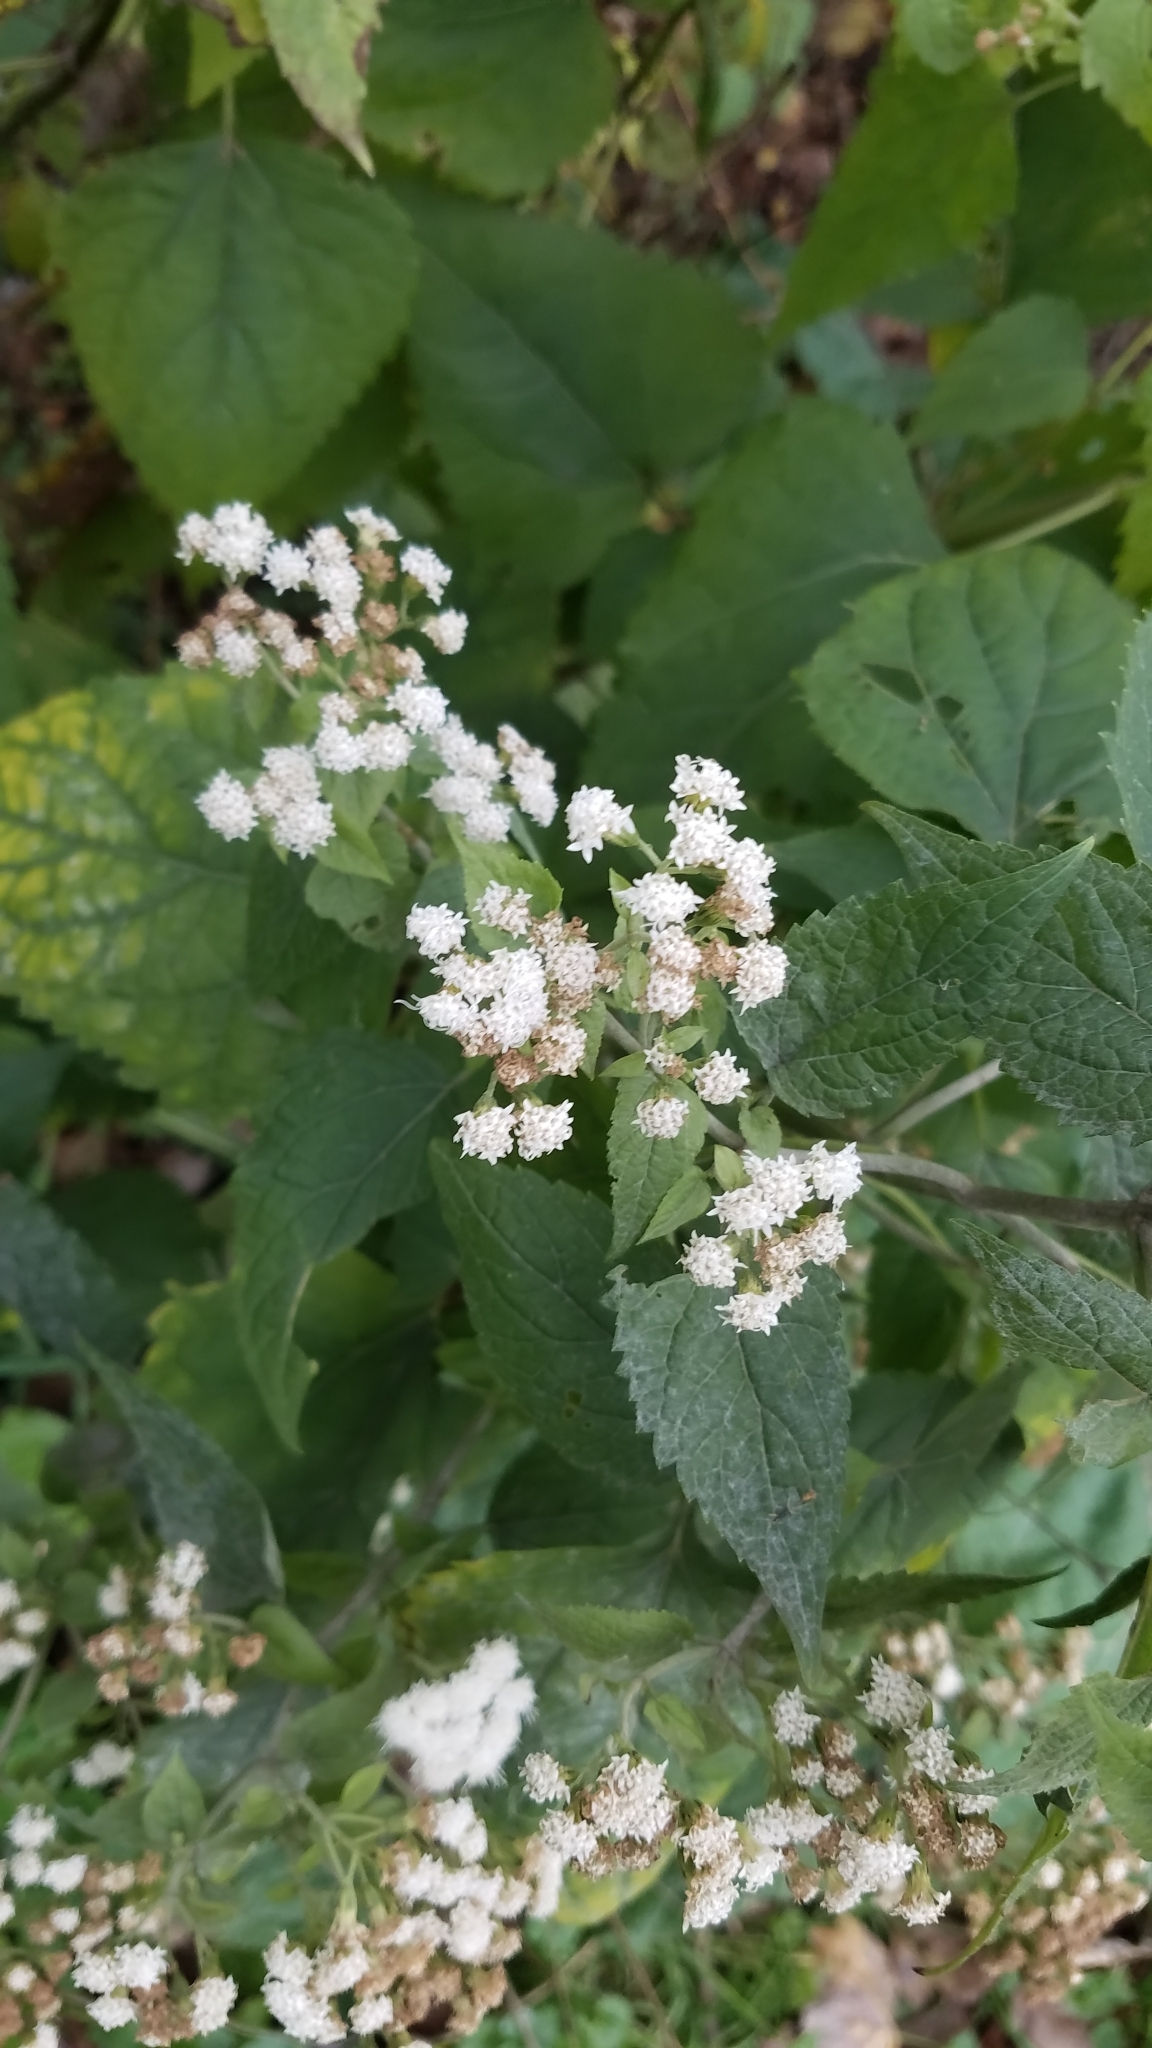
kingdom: Plantae
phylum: Tracheophyta
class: Magnoliopsida
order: Asterales
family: Asteraceae
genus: Ageratina
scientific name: Ageratina altissima
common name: White snakeroot
